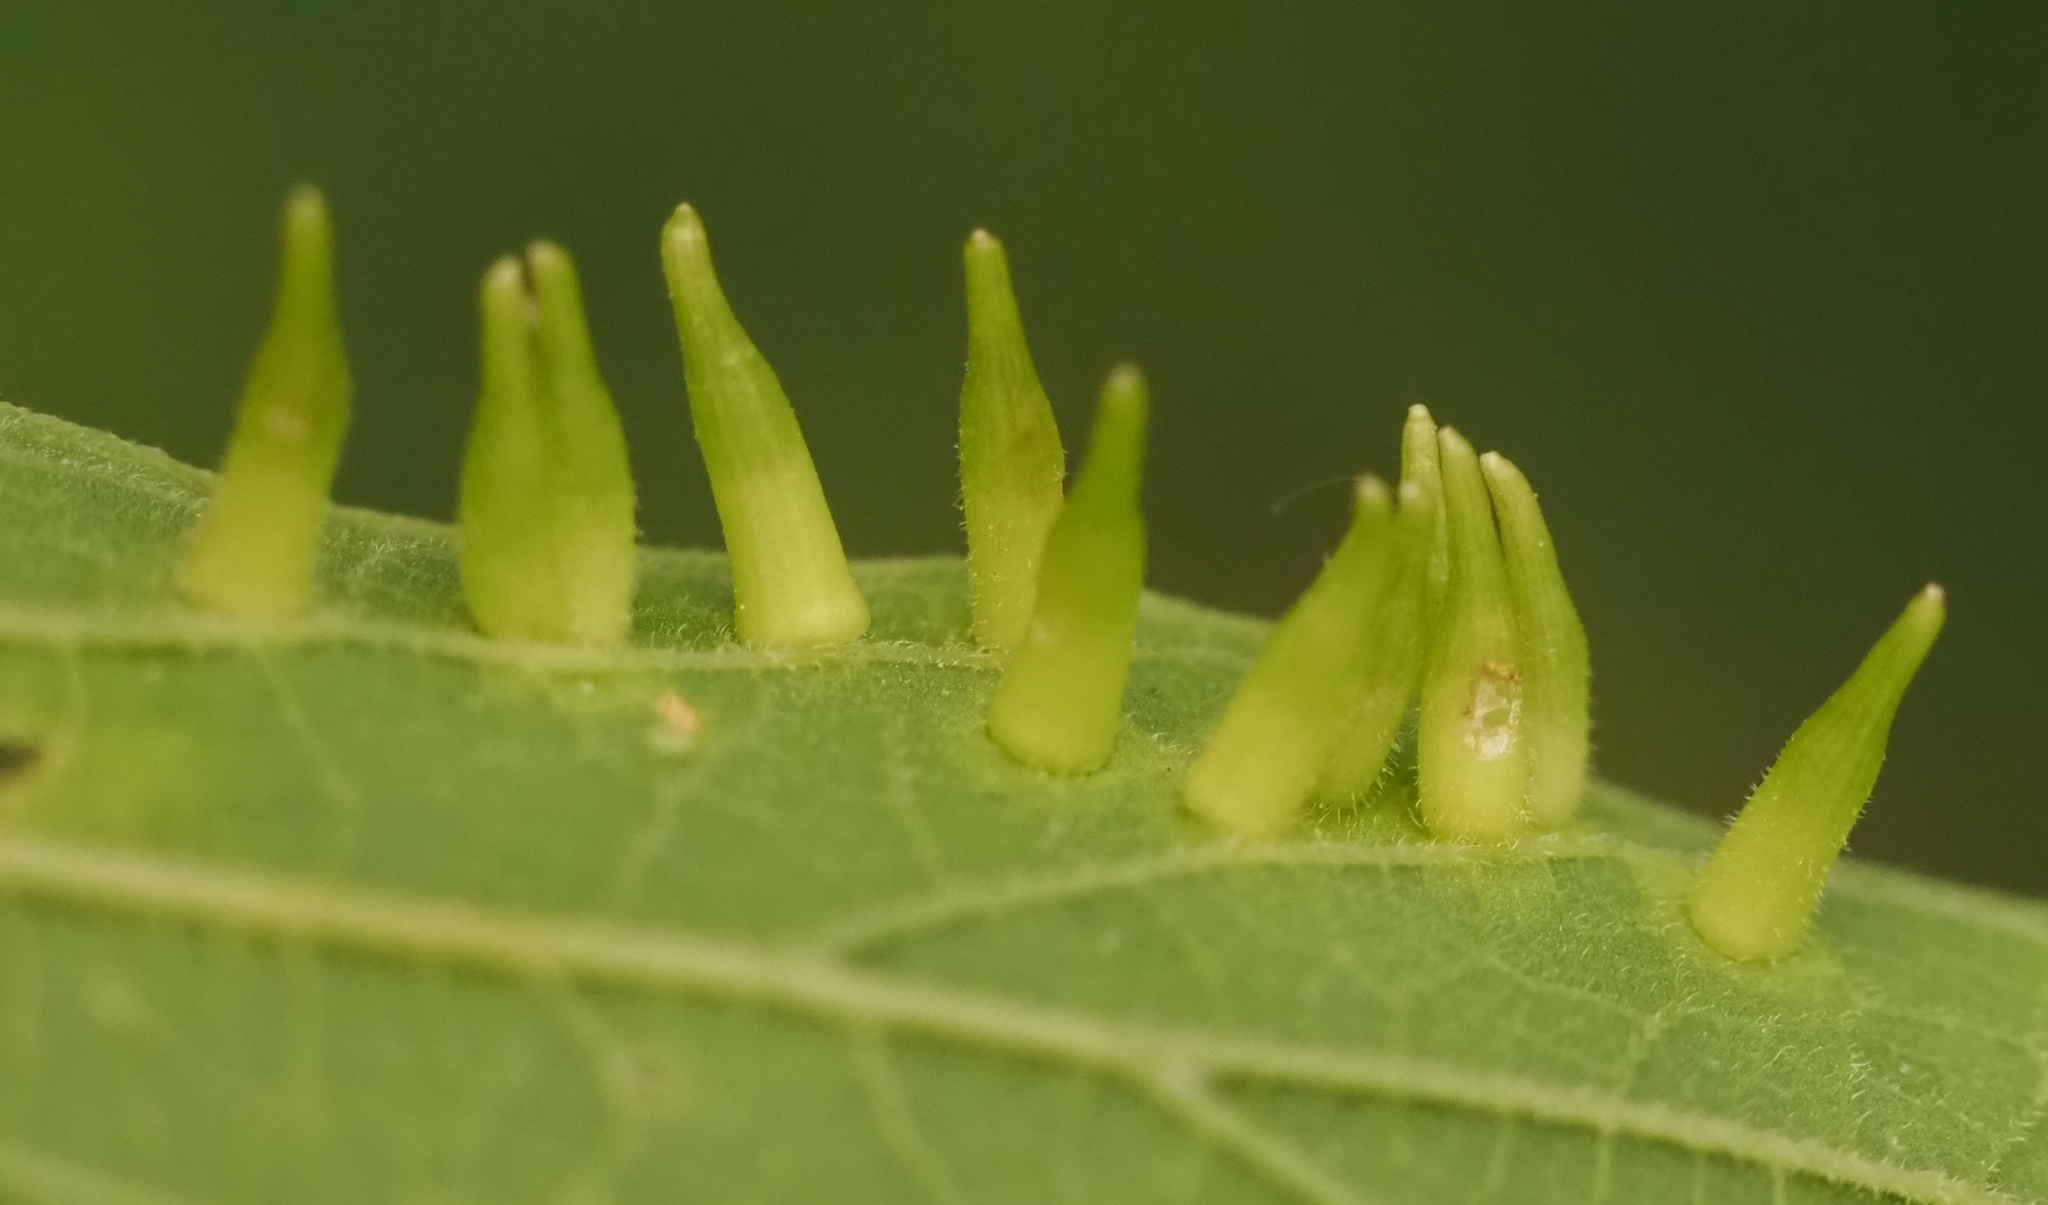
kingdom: Animalia
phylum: Arthropoda
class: Insecta
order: Diptera
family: Cecidomyiidae
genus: Celticecis
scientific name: Celticecis subulata
